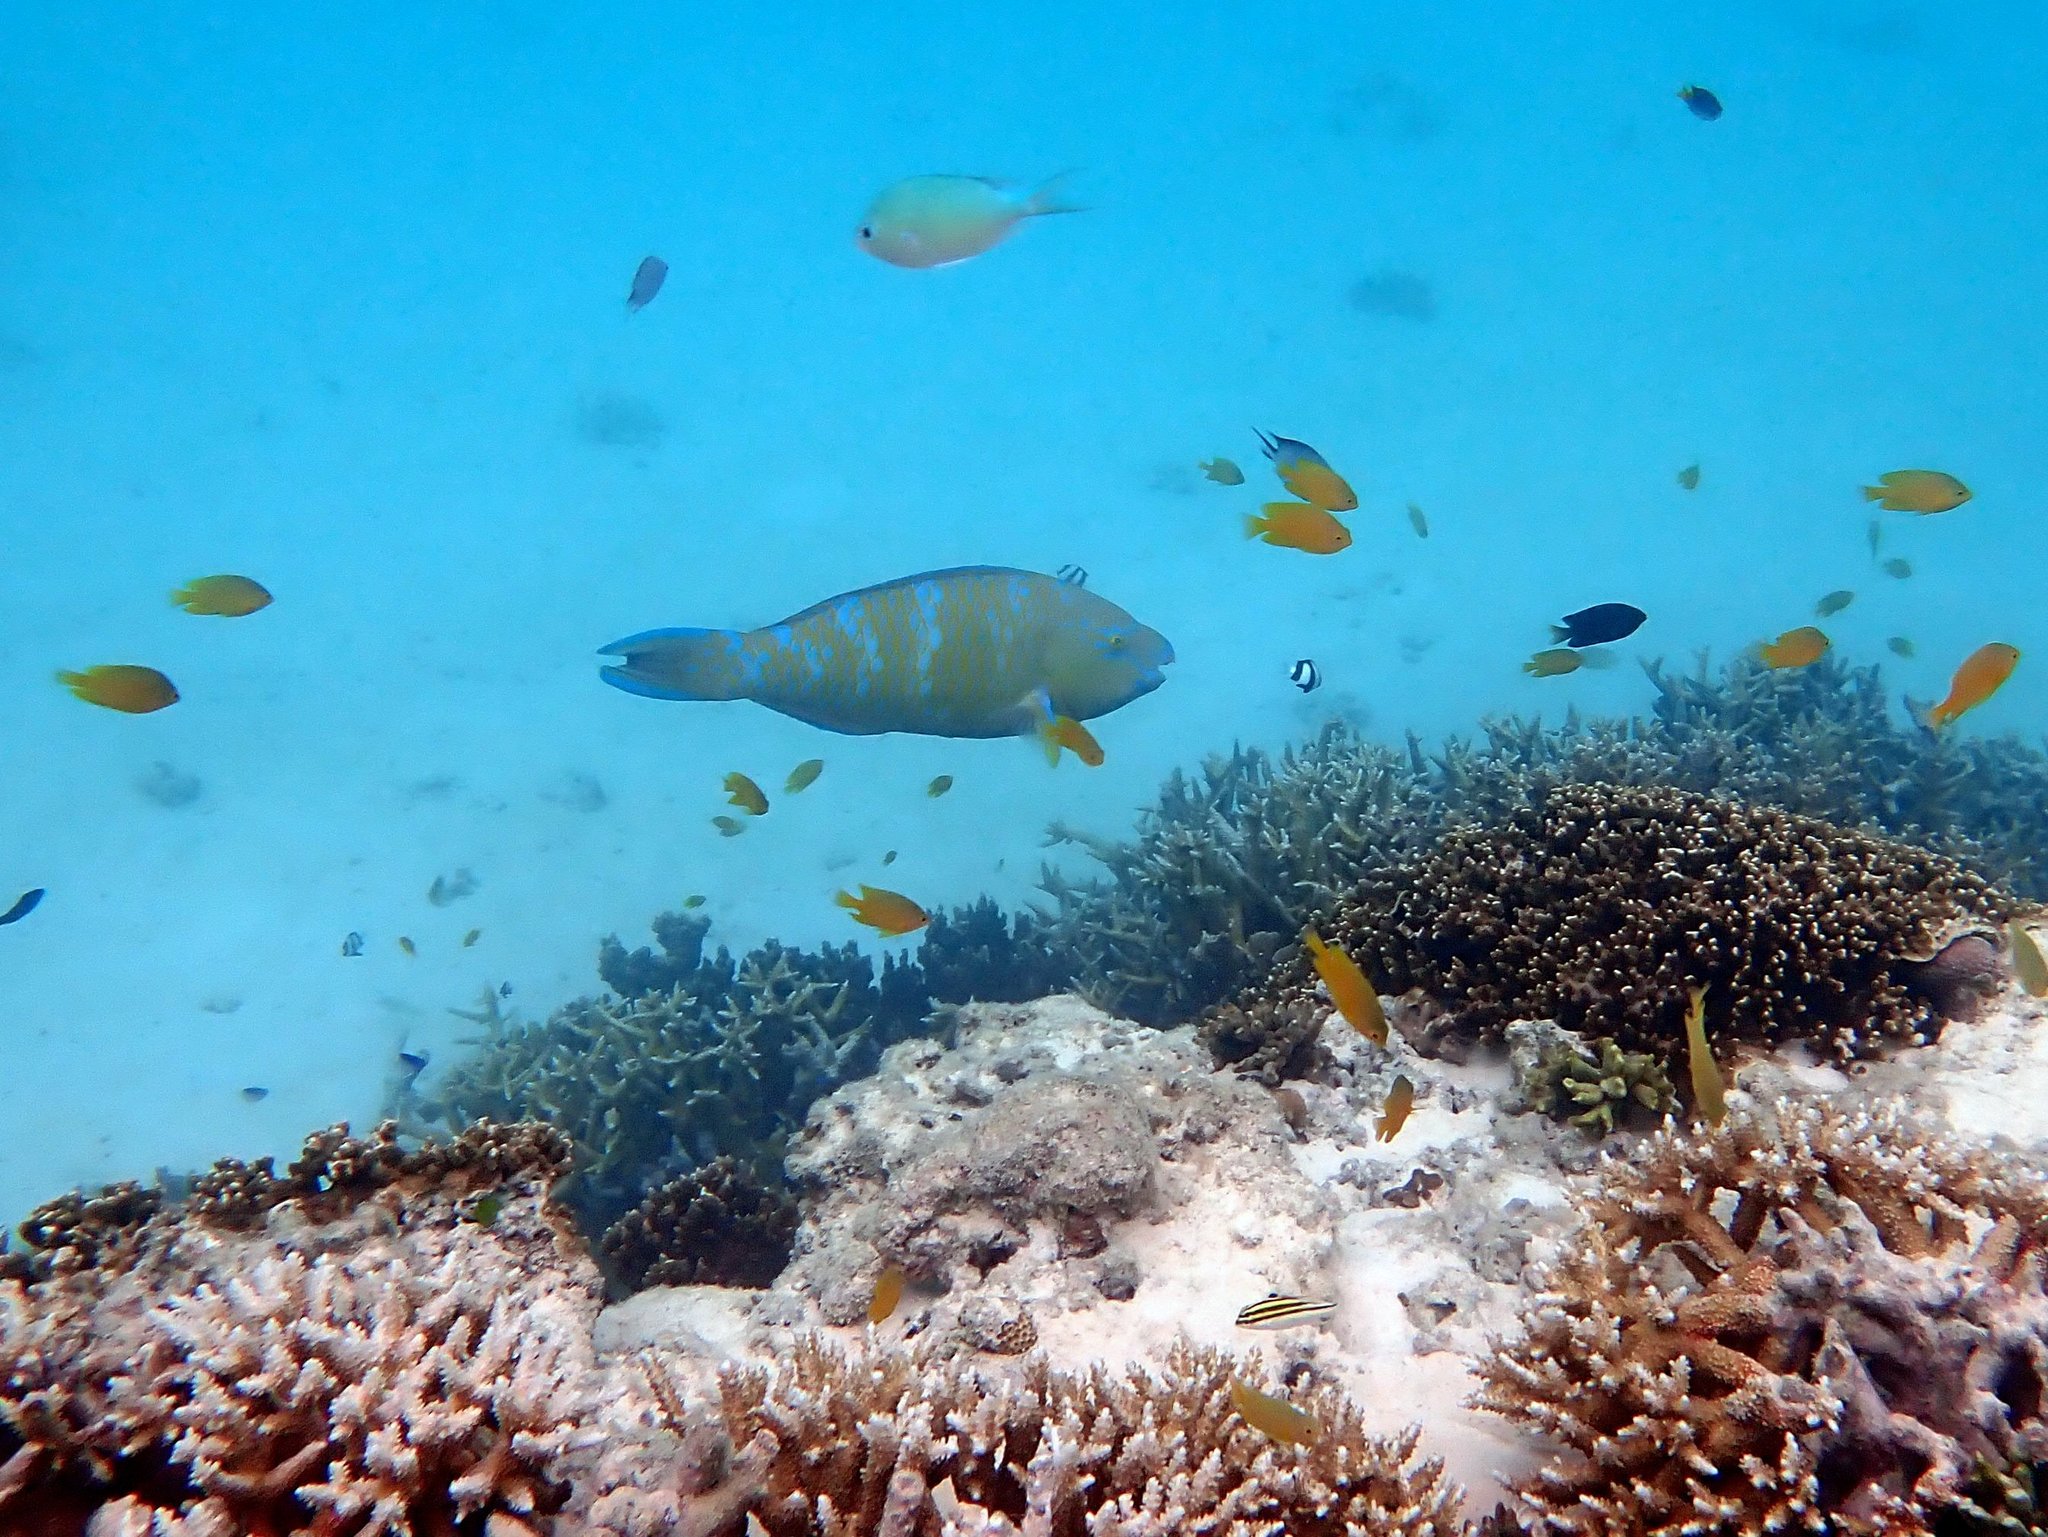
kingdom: Animalia
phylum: Chordata
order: Perciformes
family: Scaridae
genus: Scarus
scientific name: Scarus ghobban
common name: Blue-barred parrotfish
